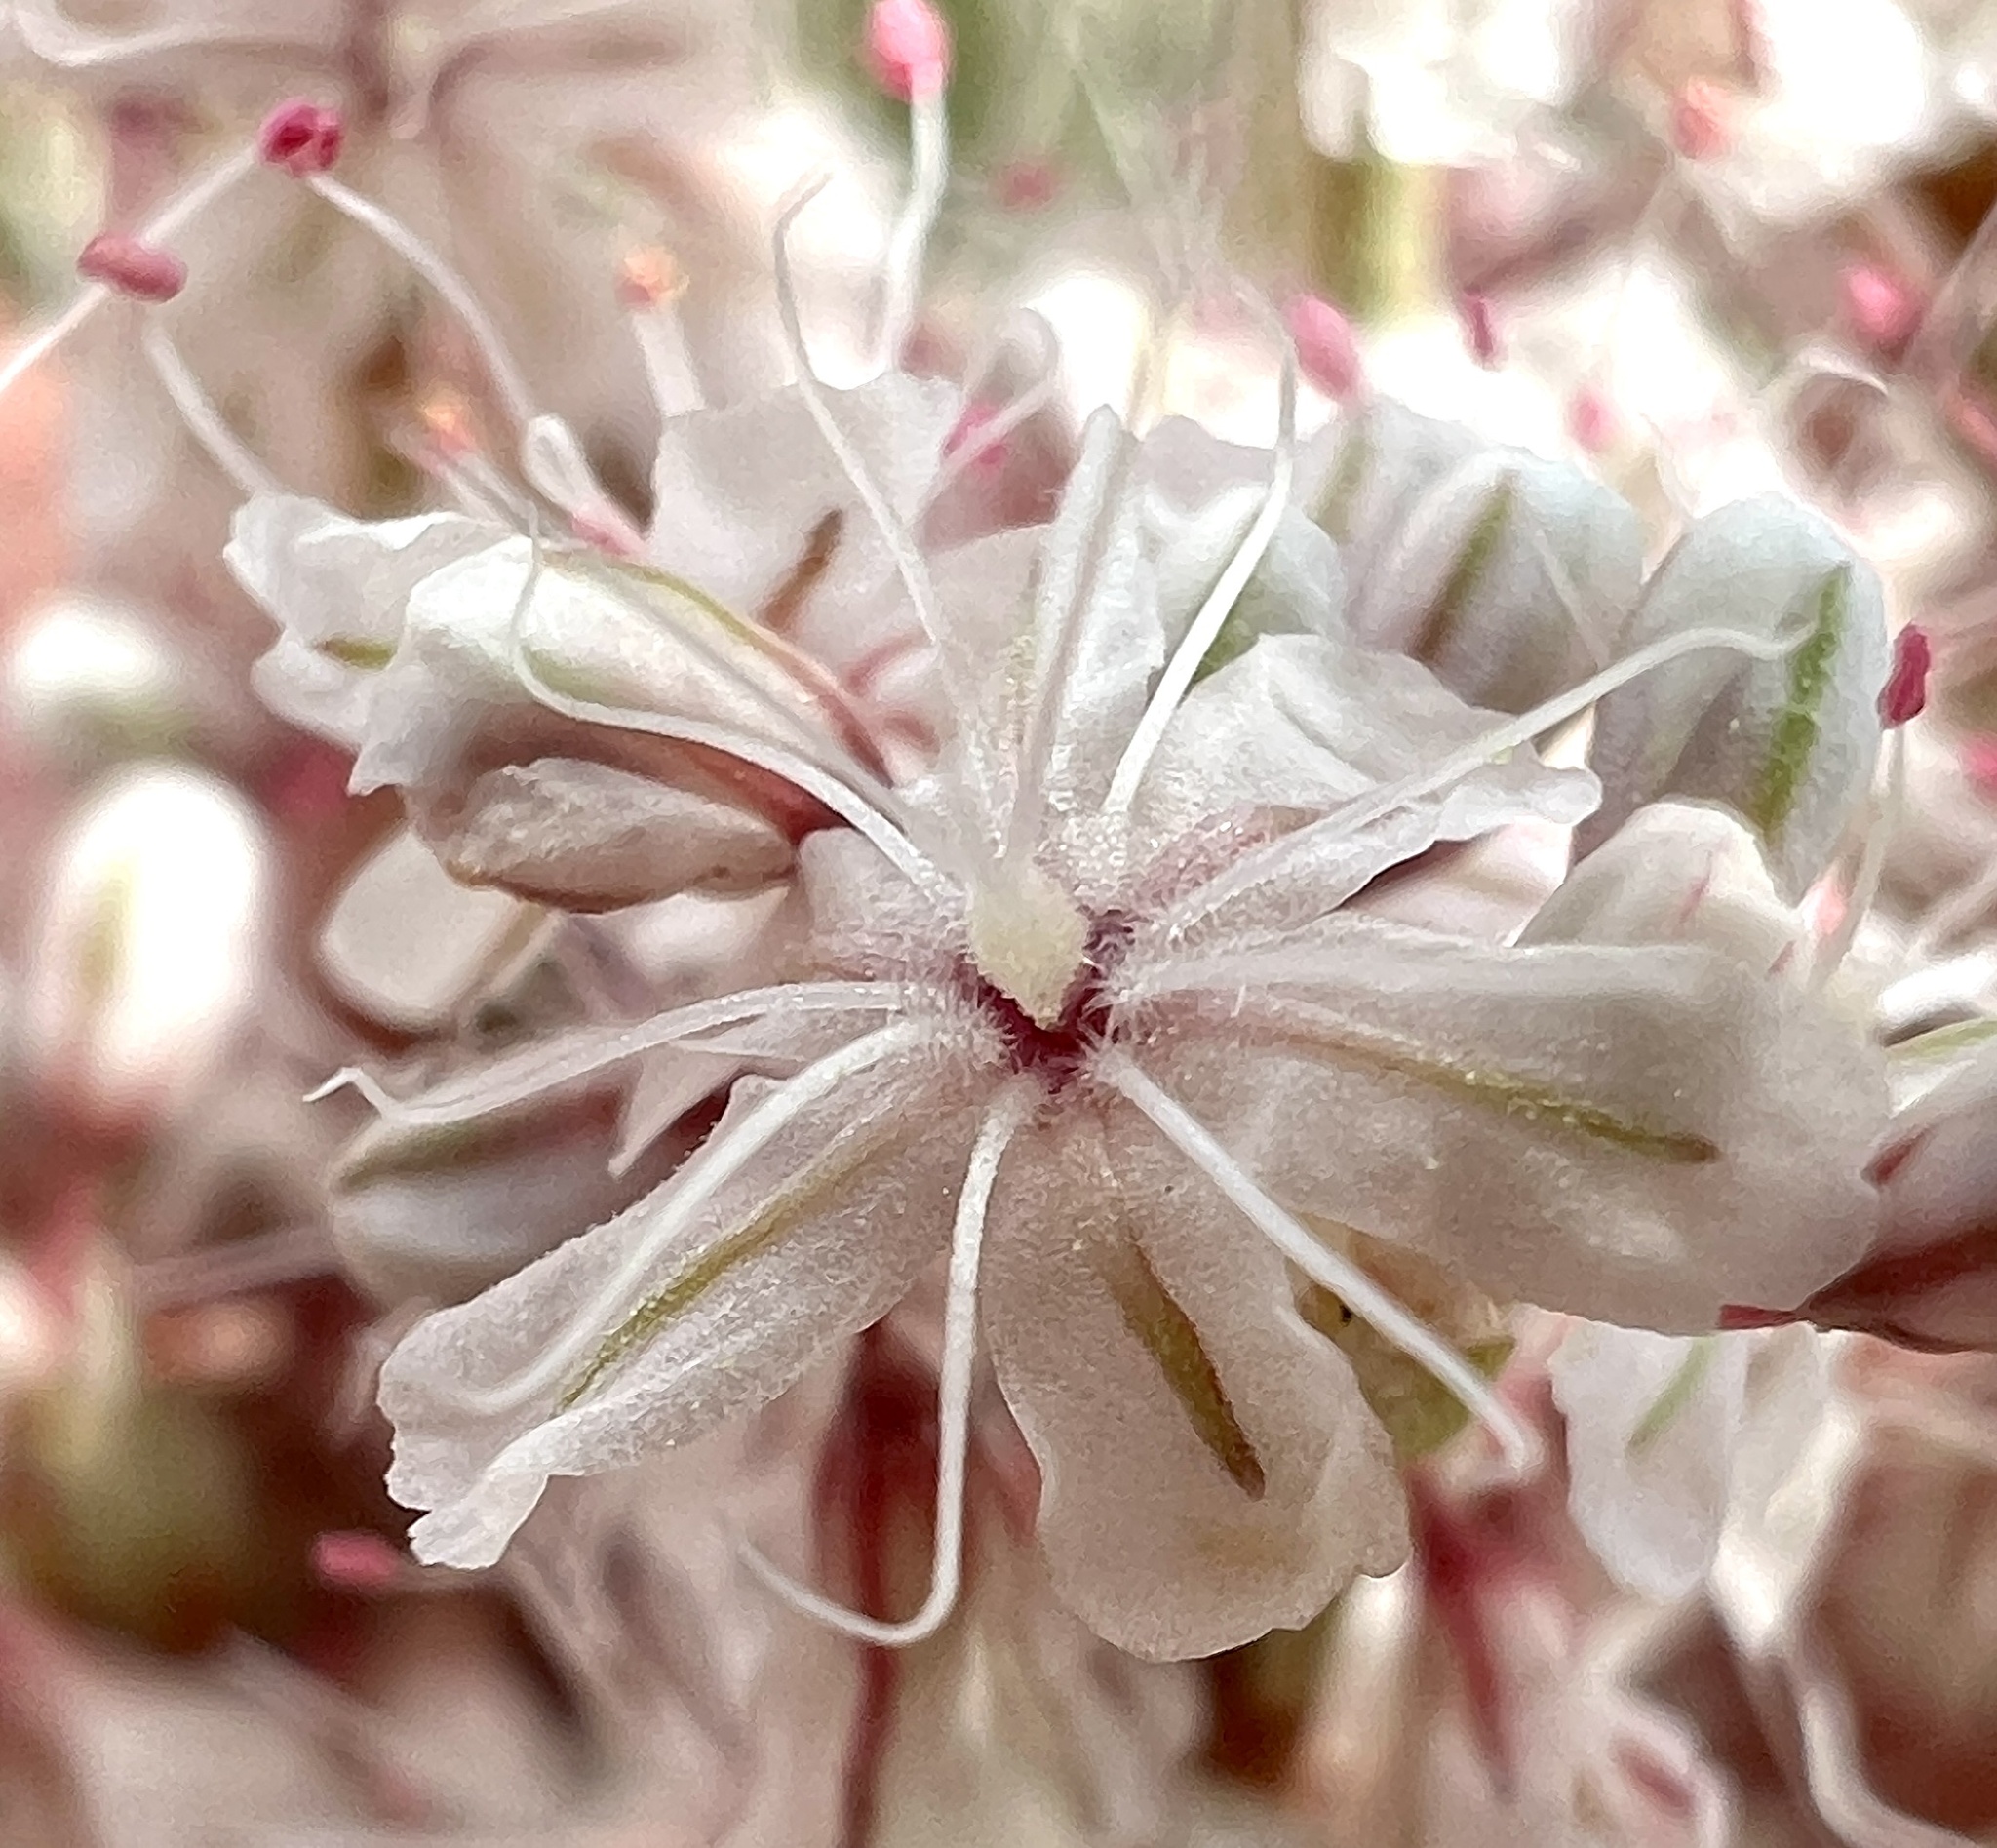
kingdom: Plantae
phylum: Tracheophyta
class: Magnoliopsida
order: Caryophyllales
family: Polygonaceae
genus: Eriogonum
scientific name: Eriogonum wrightii
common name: Bastard-sage
